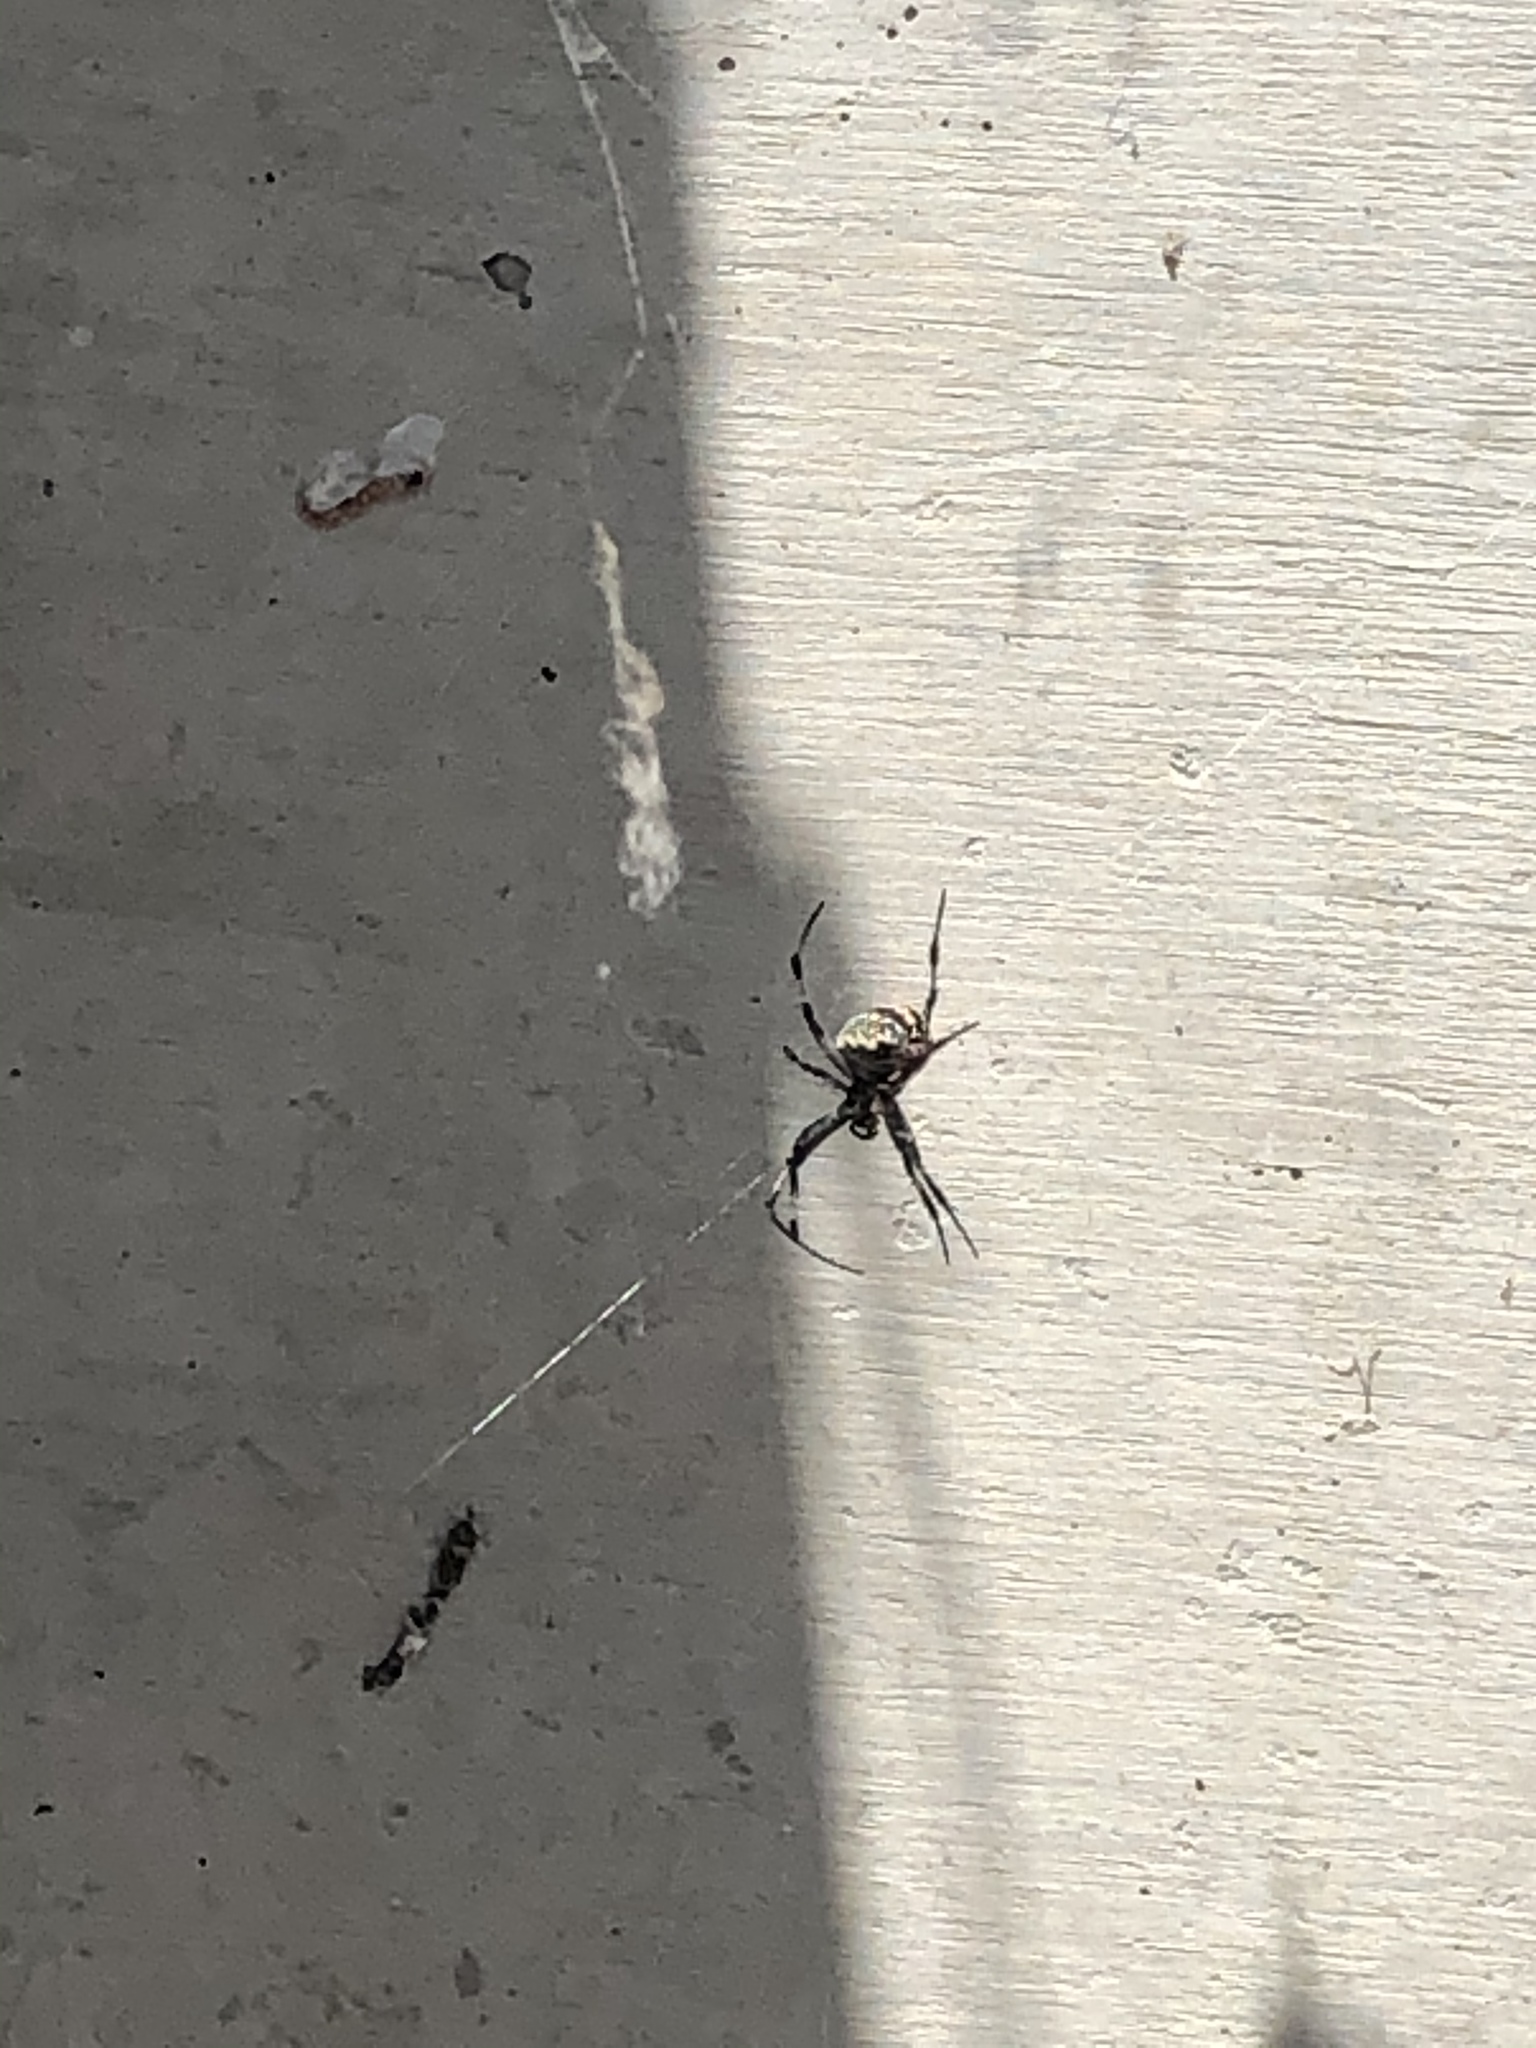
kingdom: Animalia
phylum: Arthropoda
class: Arachnida
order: Araneae
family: Araneidae
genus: Neoscona
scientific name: Neoscona oaxacensis
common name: Orb weavers
